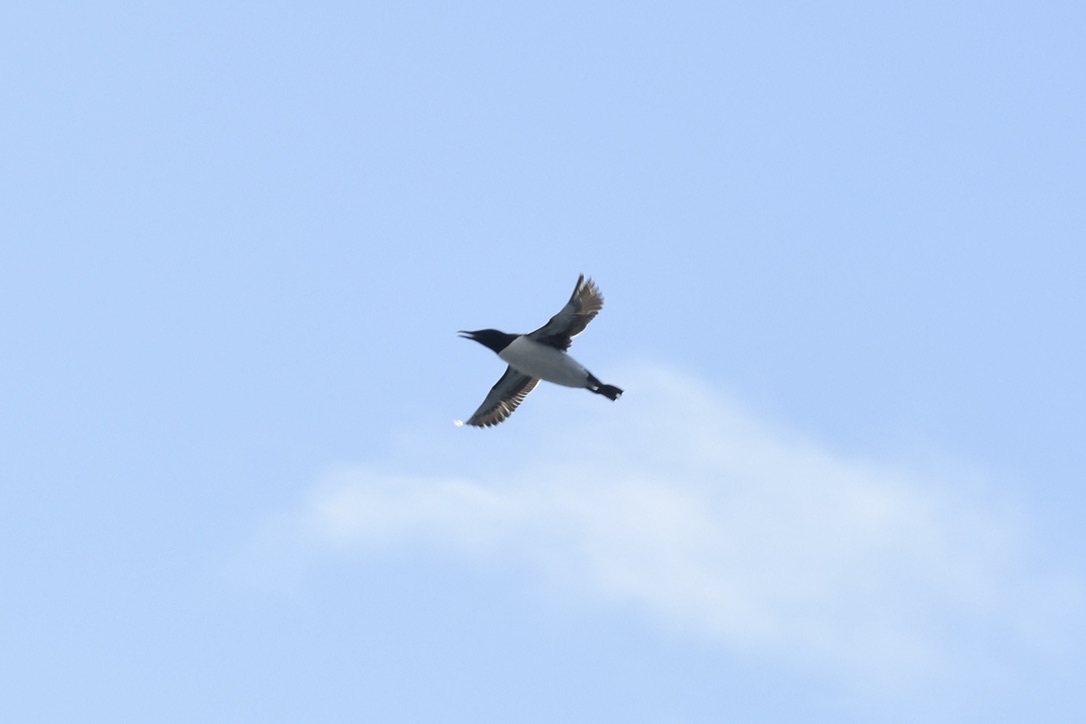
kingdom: Animalia
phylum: Chordata
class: Aves
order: Charadriiformes
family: Alcidae
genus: Uria
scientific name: Uria aalge
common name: Common murre
